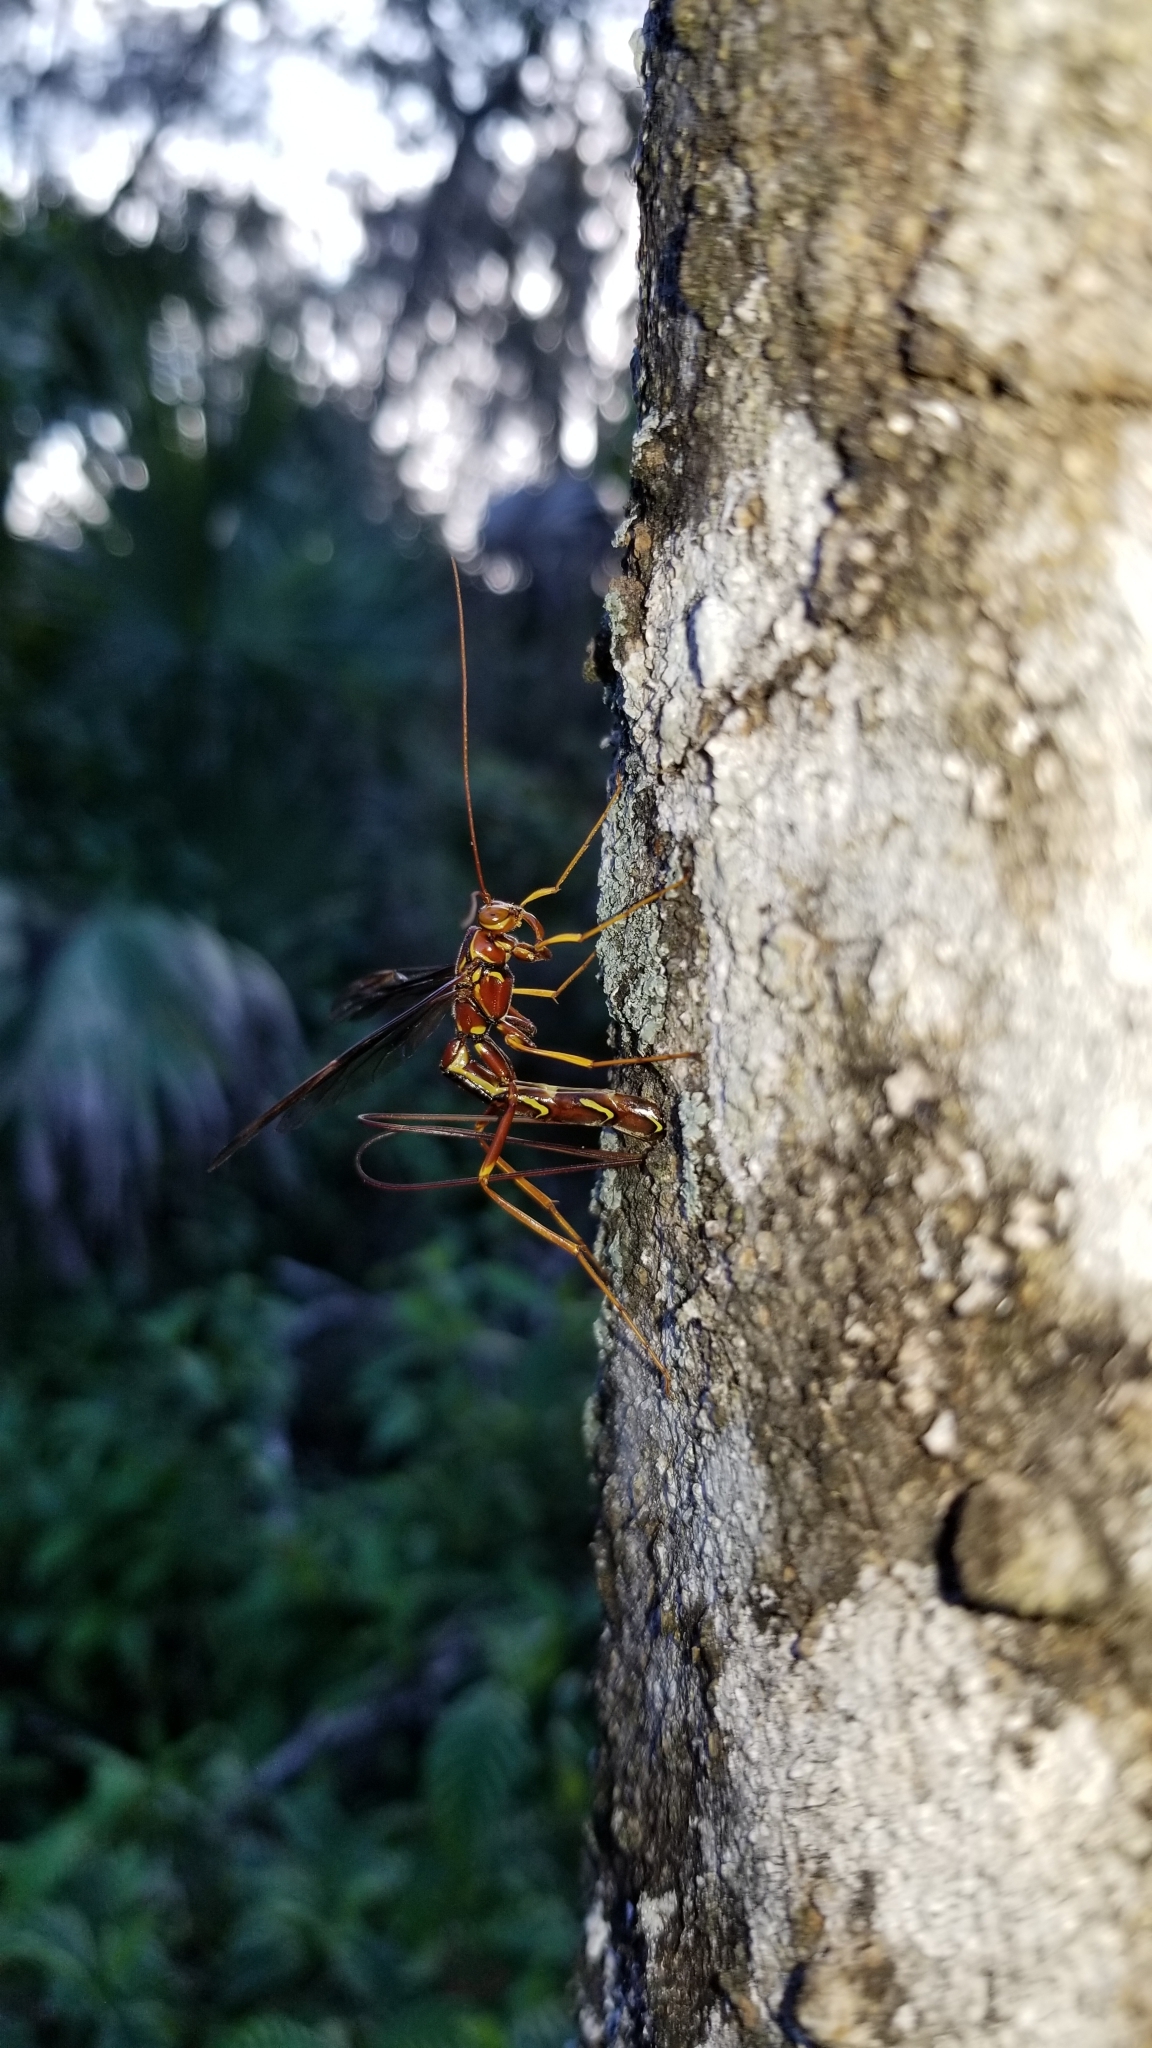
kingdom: Animalia
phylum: Arthropoda
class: Insecta
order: Hymenoptera
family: Ichneumonidae
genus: Megarhyssa
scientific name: Megarhyssa macrura
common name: Long-tailed giant ichneumonid wasp
